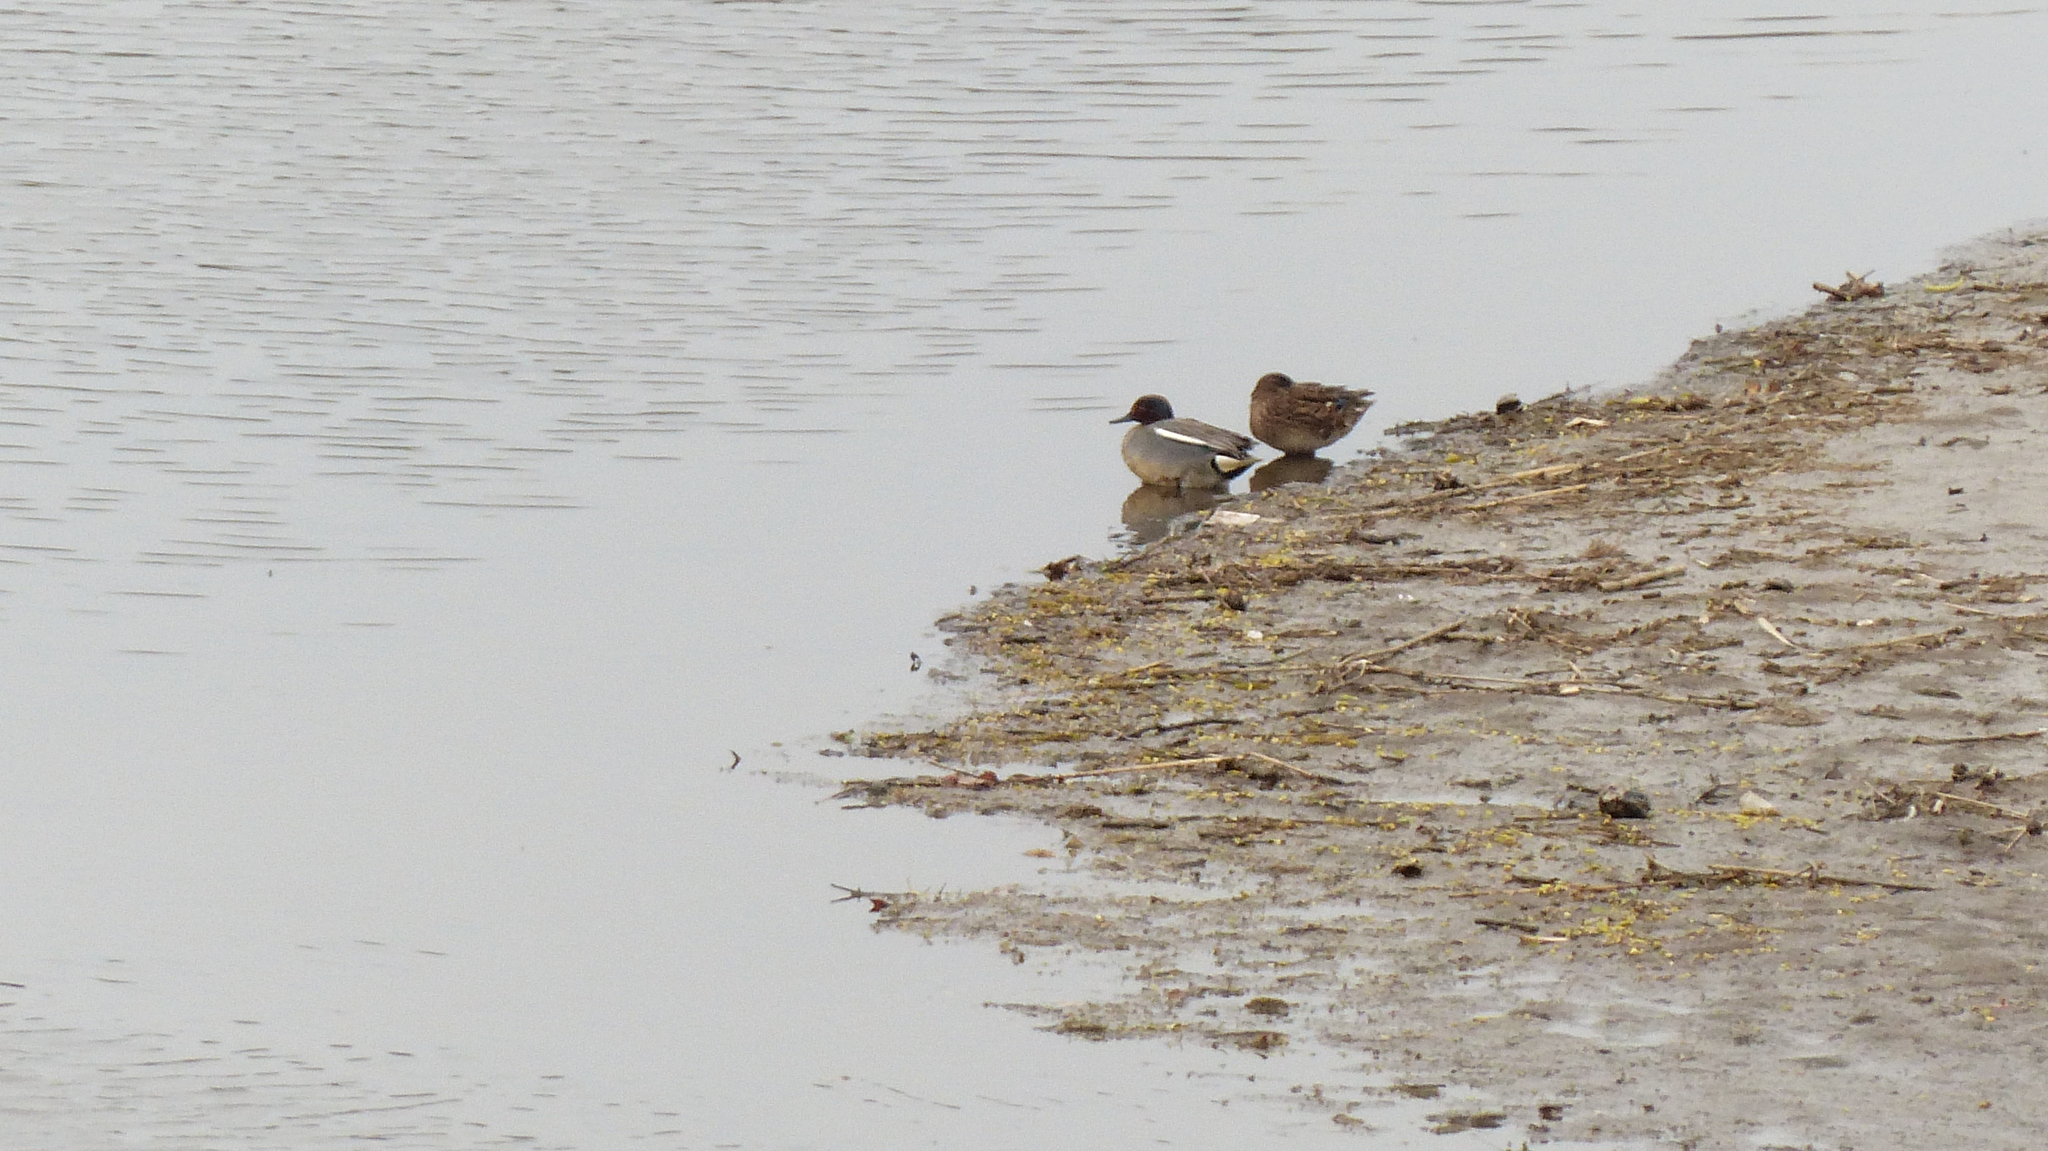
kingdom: Animalia
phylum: Chordata
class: Aves
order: Anseriformes
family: Anatidae
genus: Anas
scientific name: Anas crecca
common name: Eurasian teal
